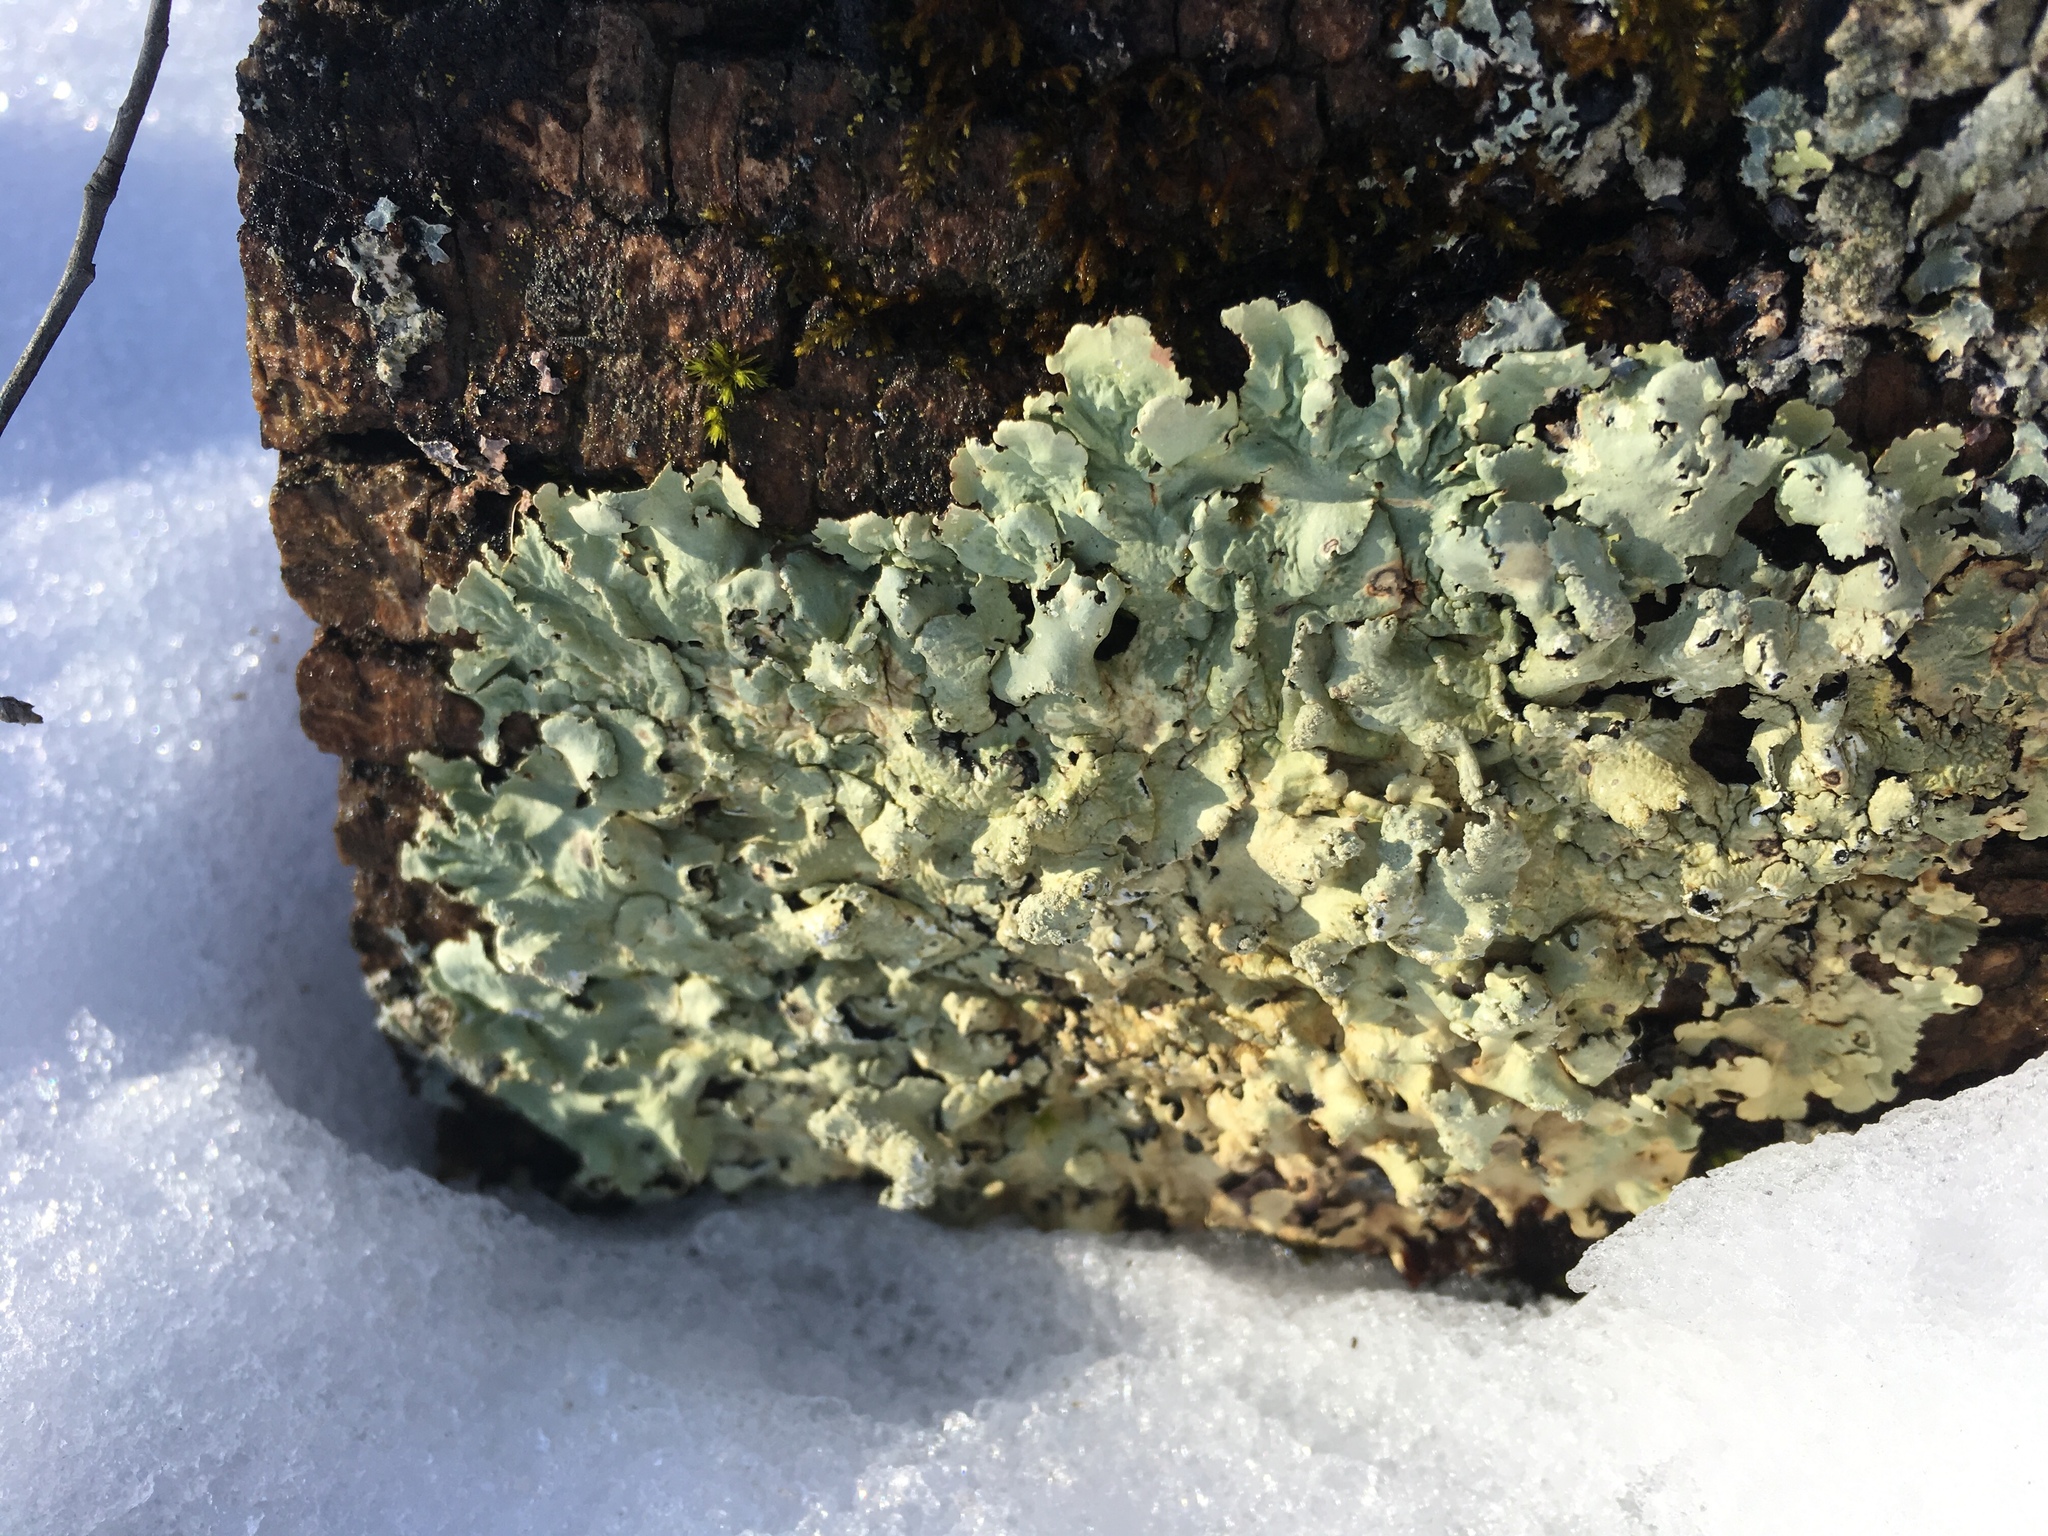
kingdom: Fungi
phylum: Ascomycota
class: Lecanoromycetes
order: Lecanorales
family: Parmeliaceae
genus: Flavoparmelia
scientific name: Flavoparmelia caperata
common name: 40-mile per hour lichen
